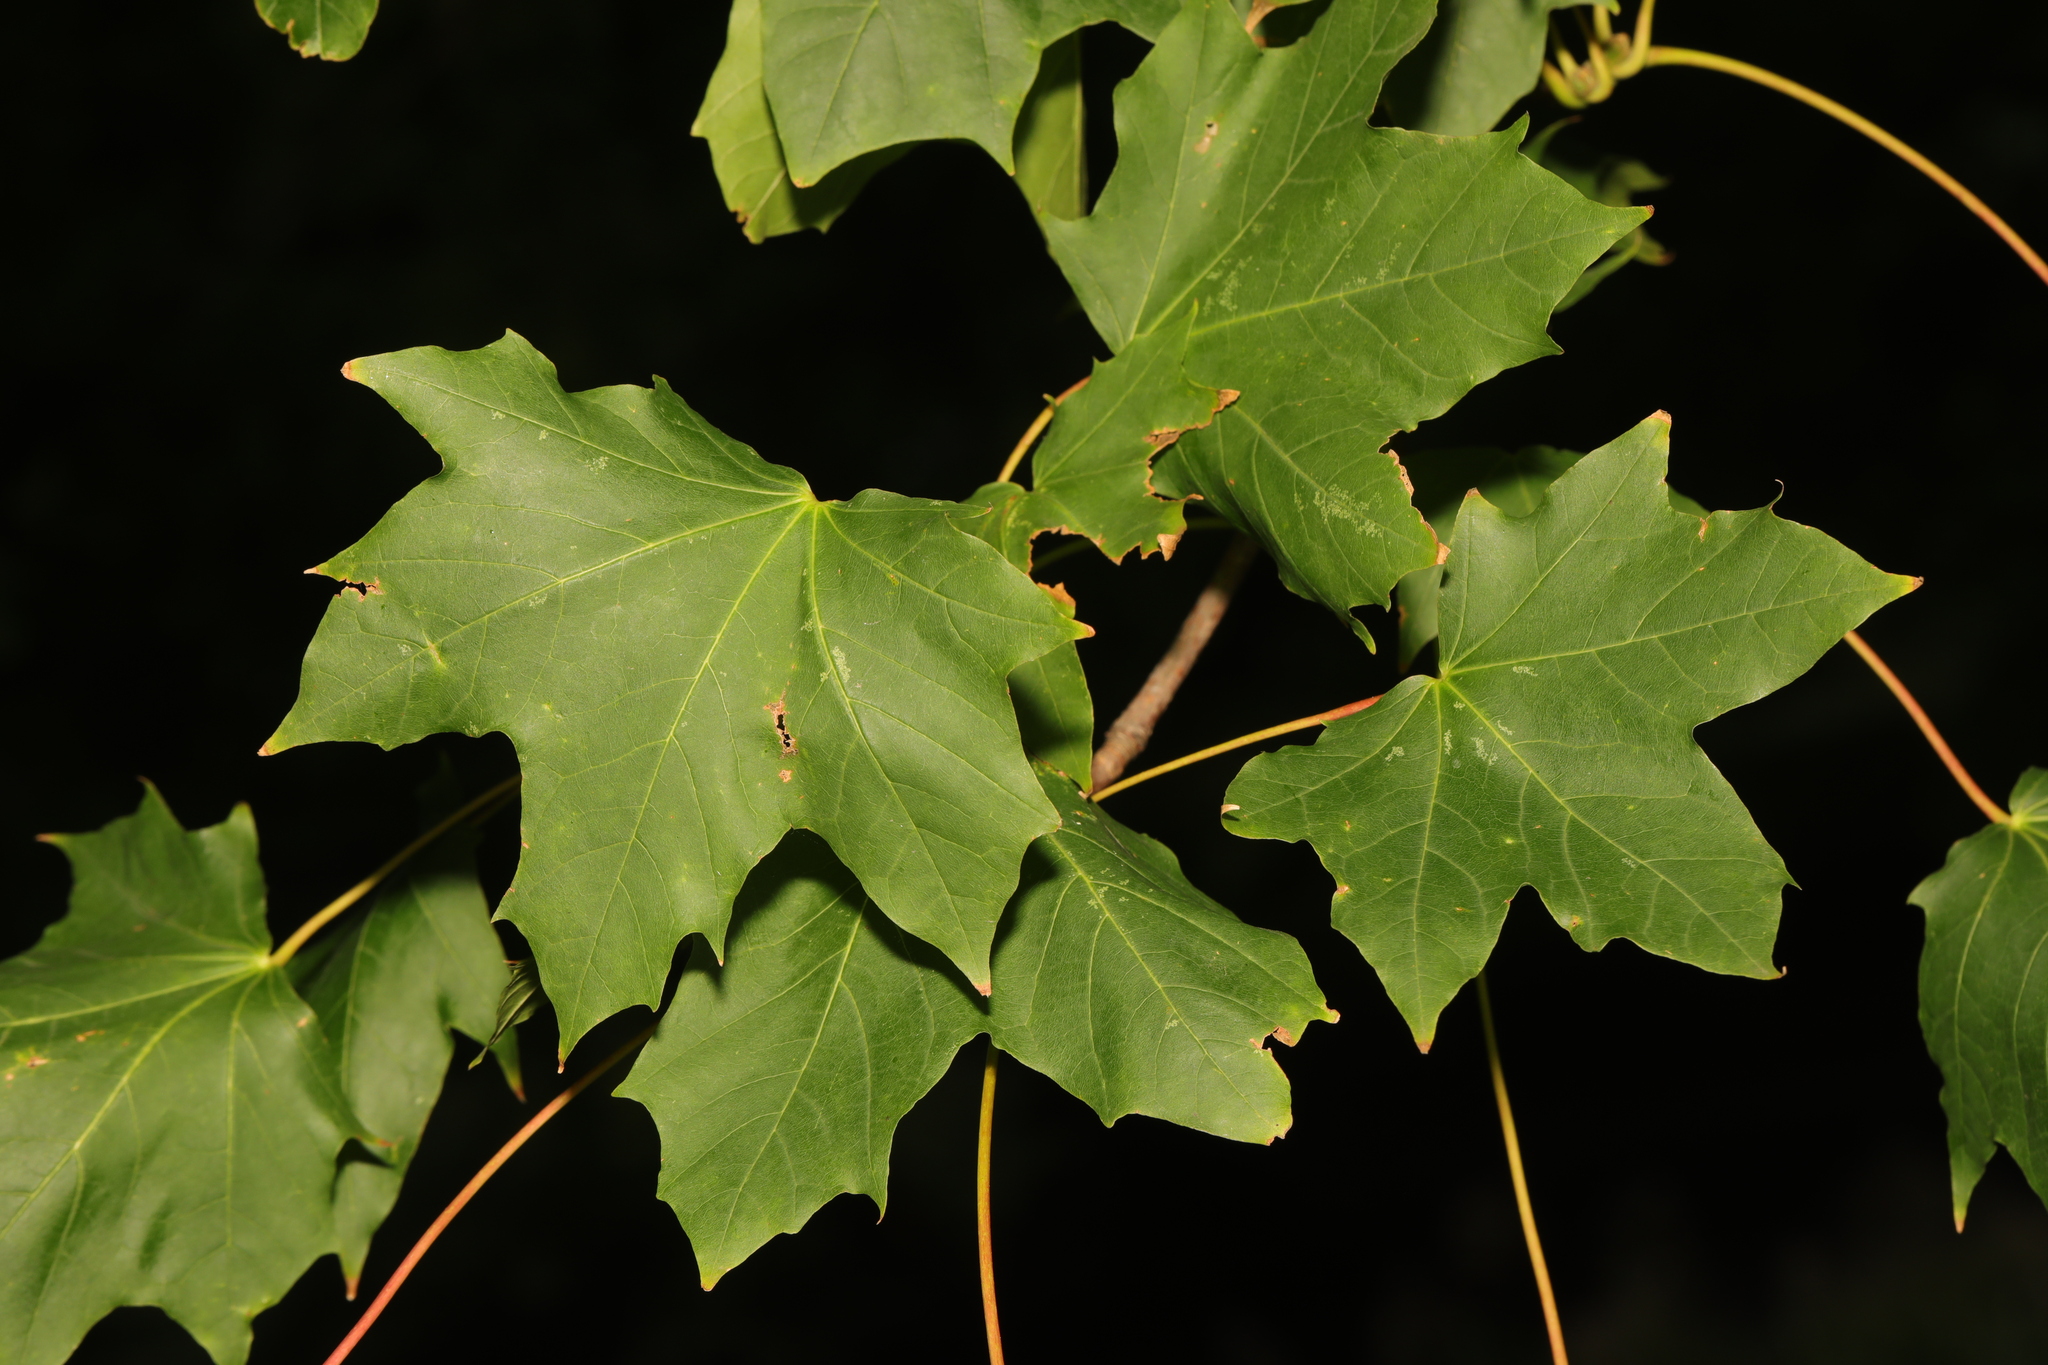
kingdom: Plantae
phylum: Tracheophyta
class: Magnoliopsida
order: Sapindales
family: Sapindaceae
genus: Acer
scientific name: Acer platanoides
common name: Norway maple
